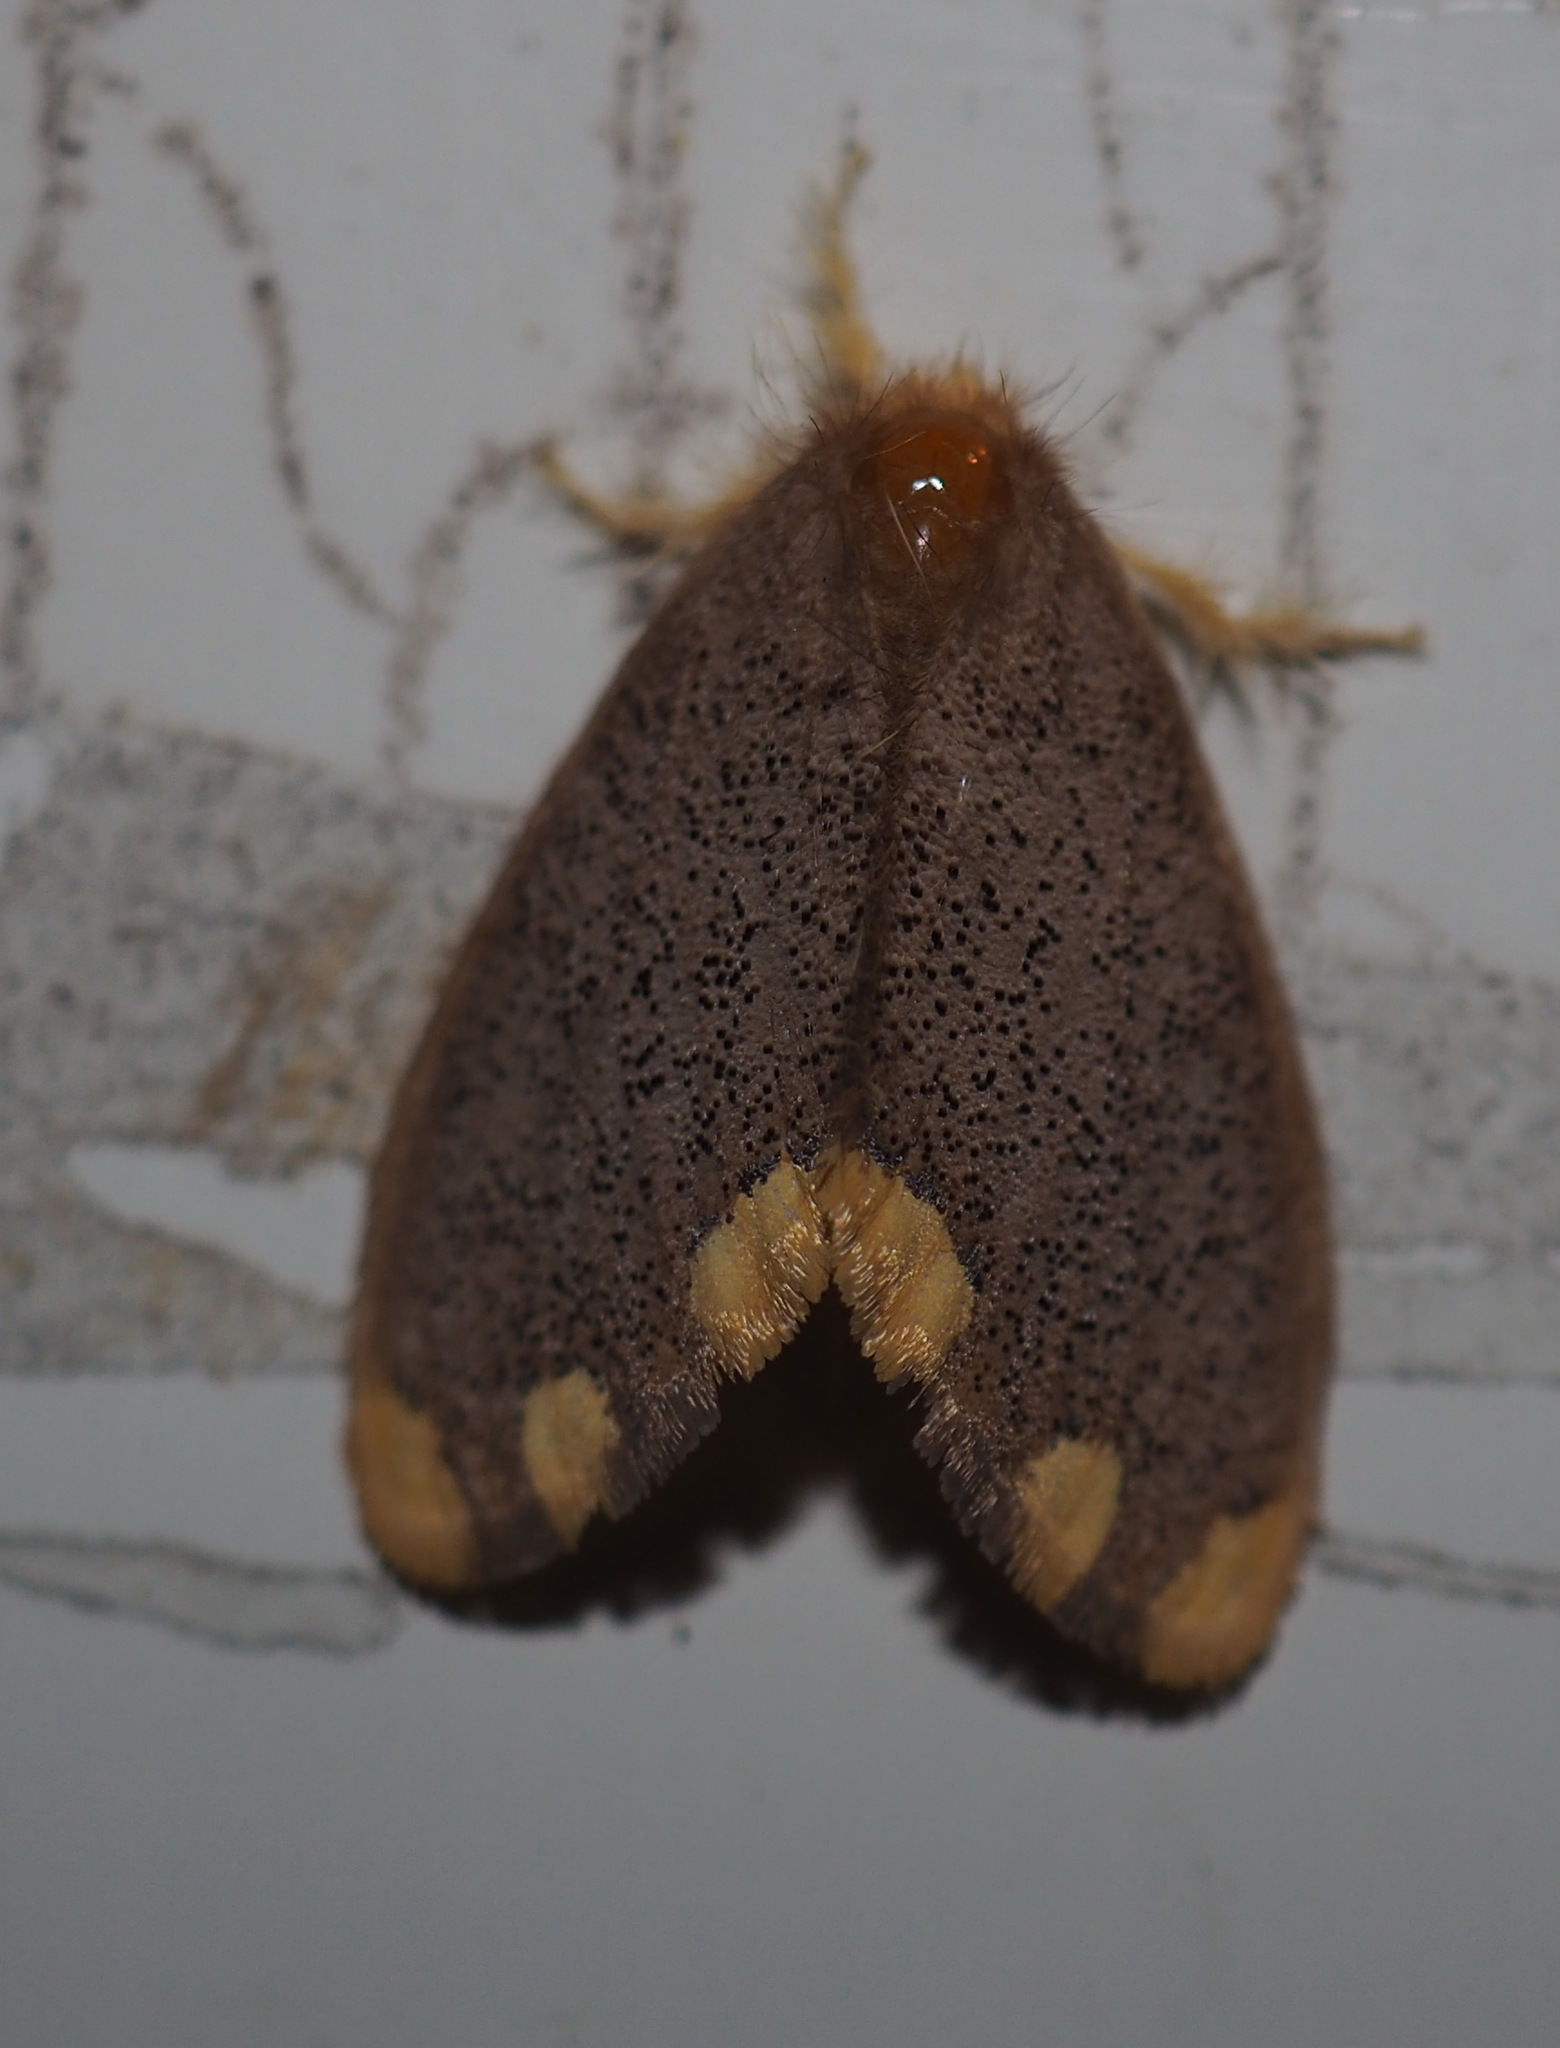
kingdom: Animalia
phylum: Arthropoda
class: Insecta
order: Lepidoptera
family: Erebidae
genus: Somena
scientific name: Somena scintillans
